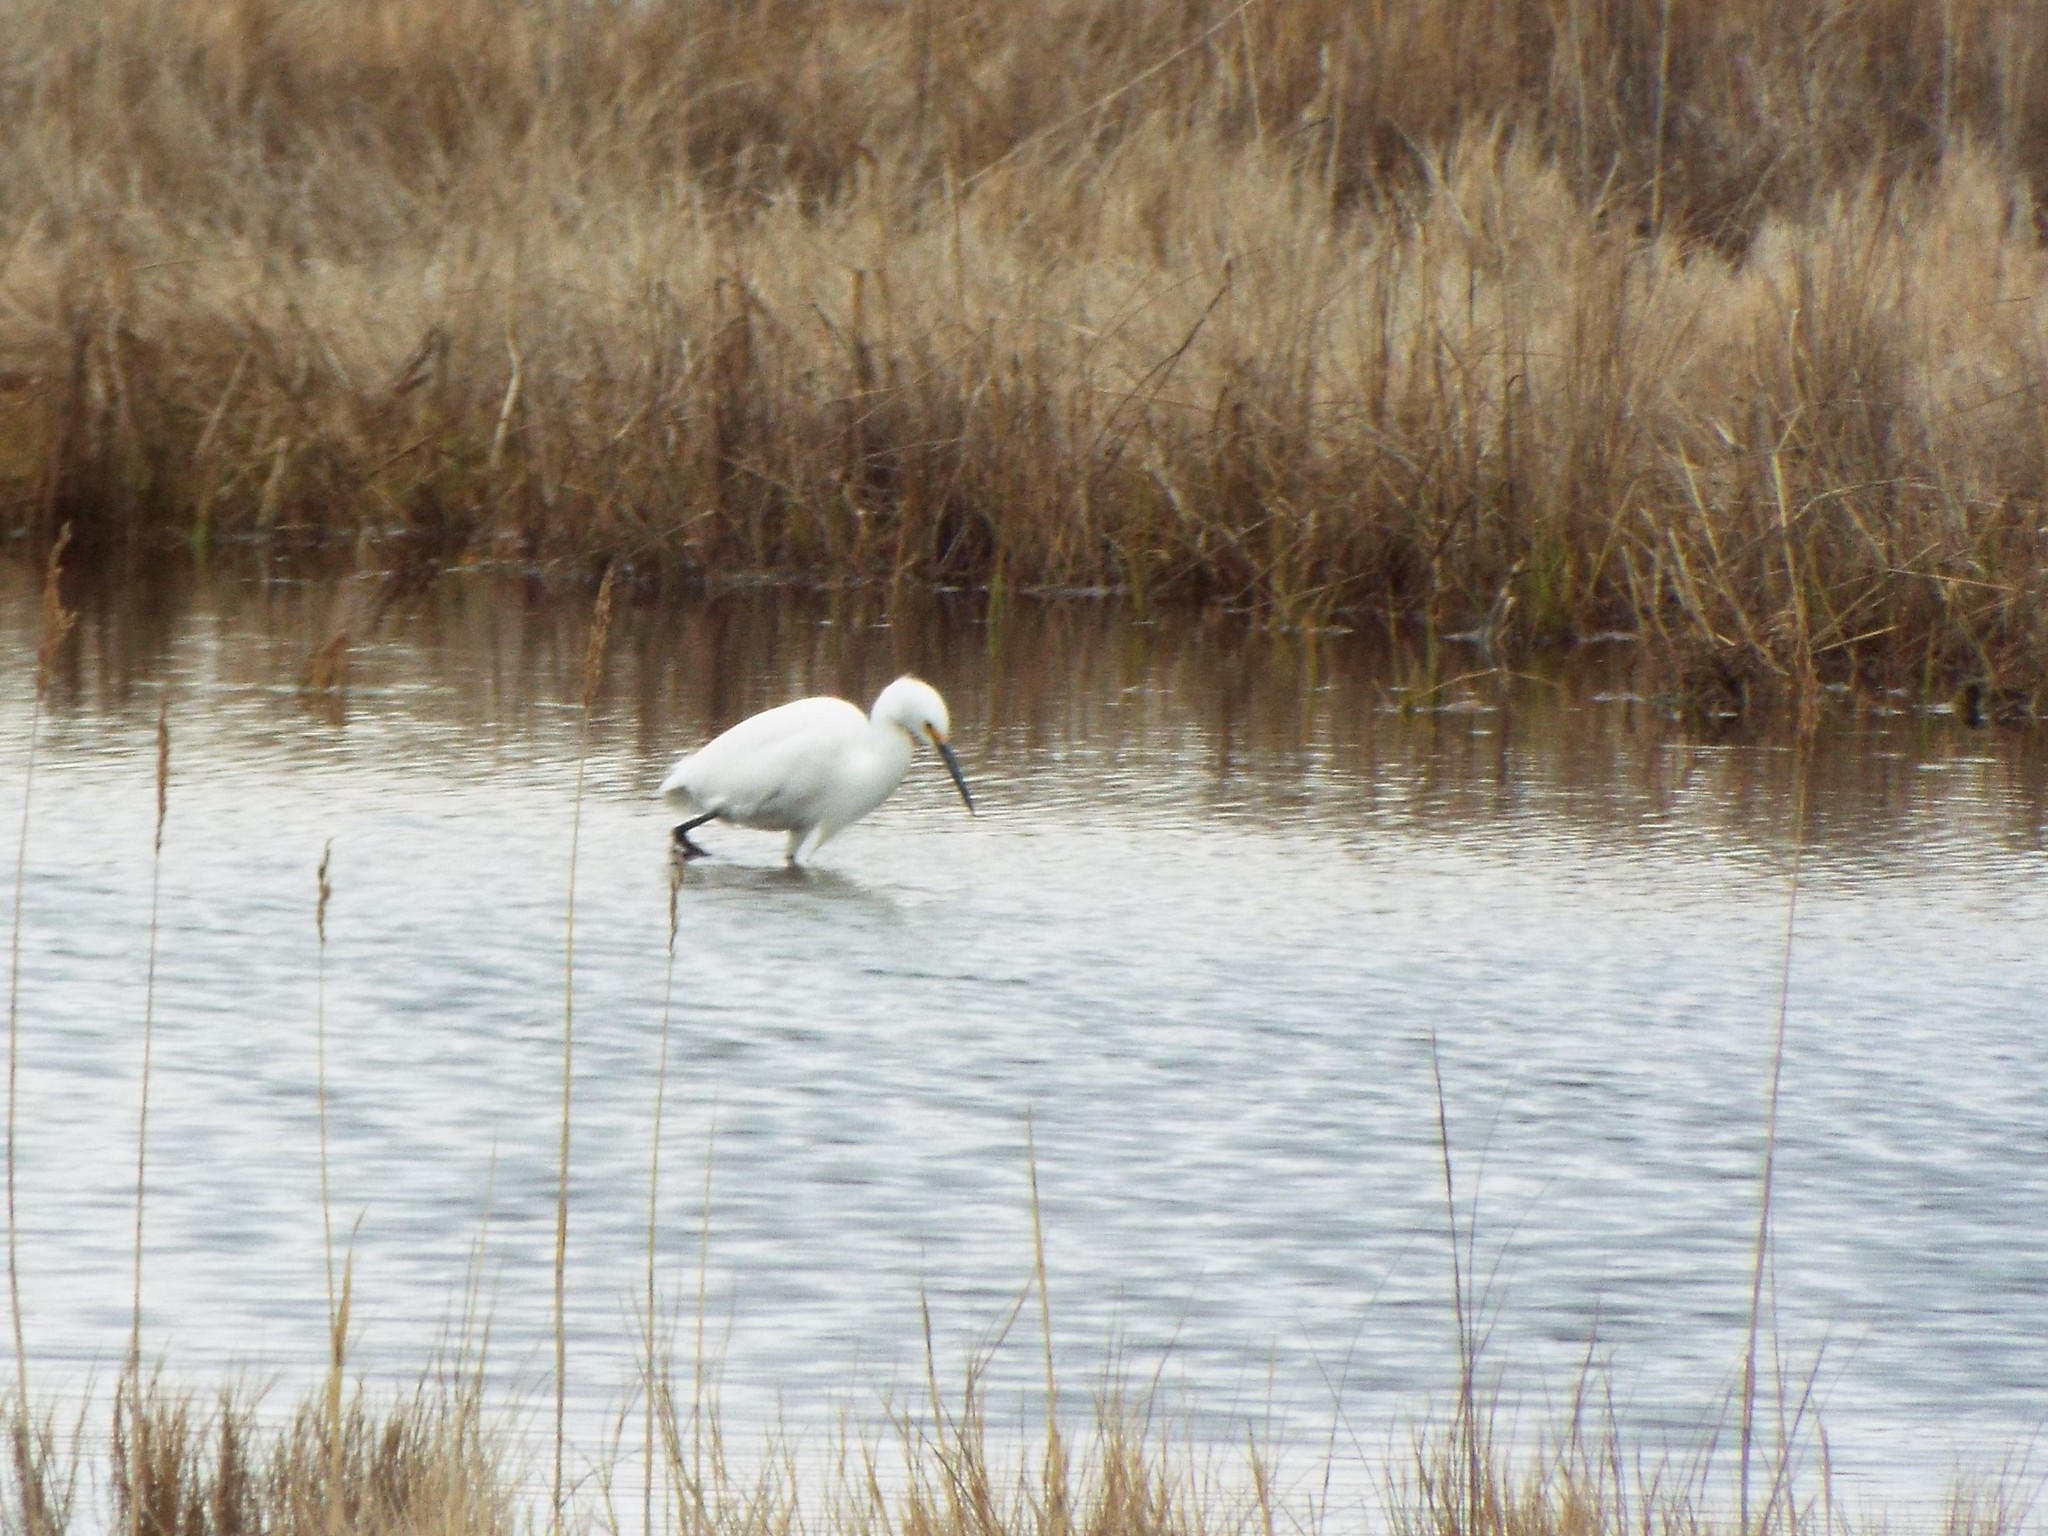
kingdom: Animalia
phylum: Chordata
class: Aves
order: Pelecaniformes
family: Ardeidae
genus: Egretta
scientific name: Egretta thula
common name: Snowy egret
